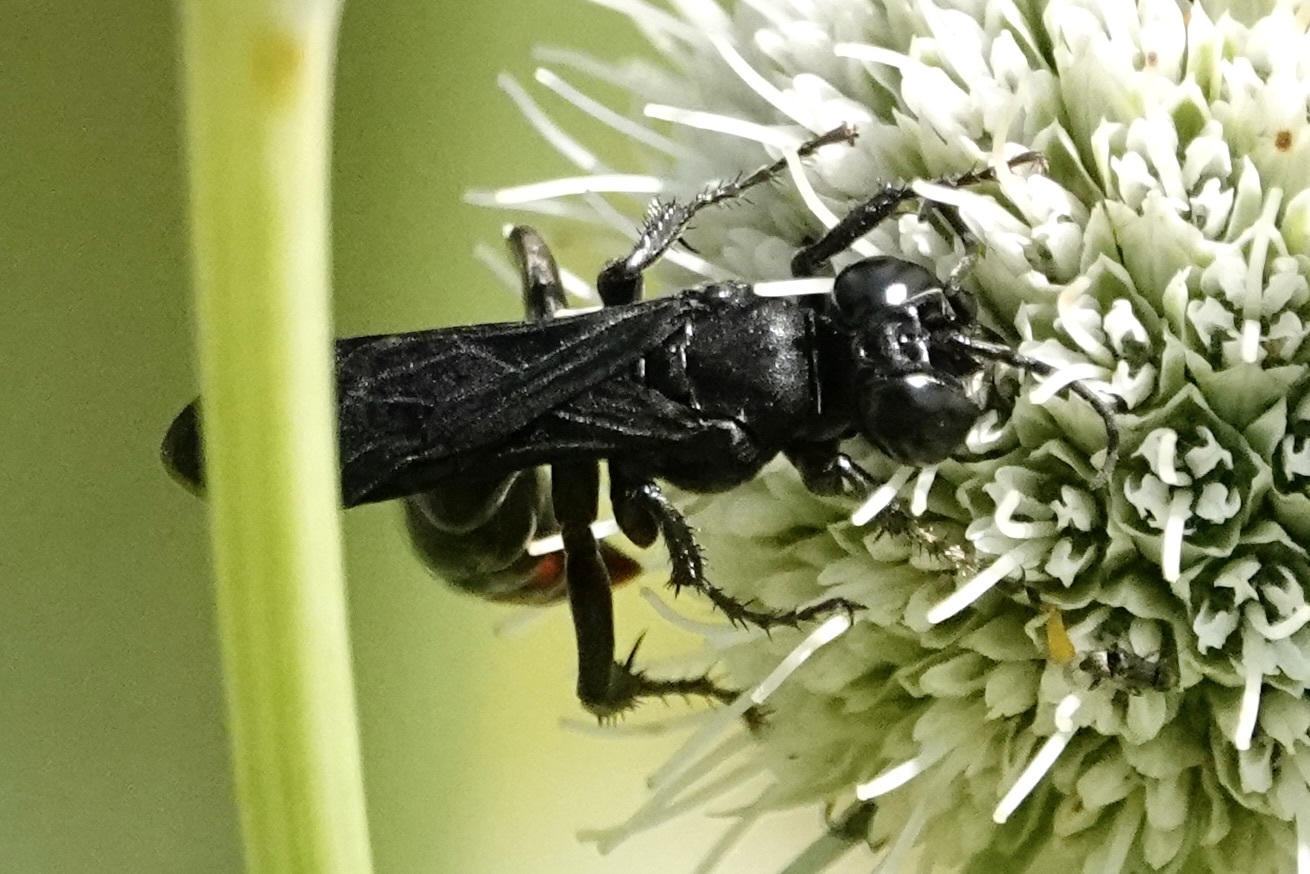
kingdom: Animalia
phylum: Arthropoda
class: Insecta
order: Hymenoptera
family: Crabronidae
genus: Larra
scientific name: Larra analis
